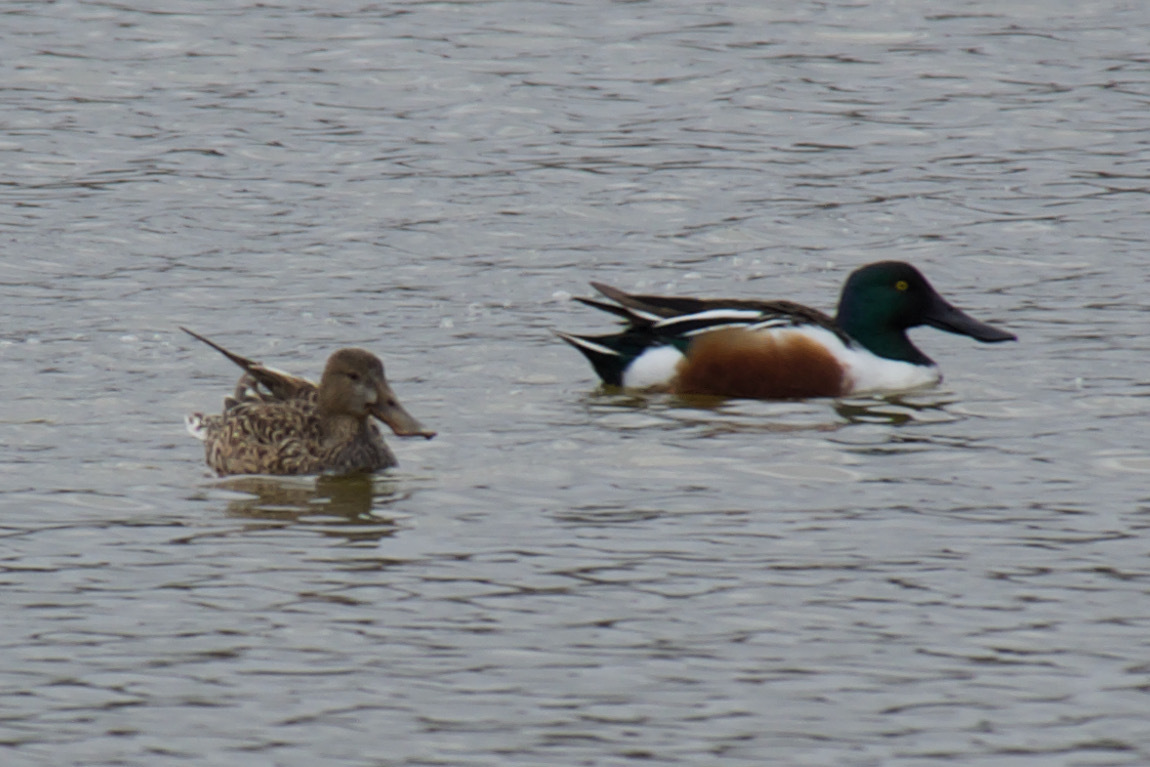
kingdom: Animalia
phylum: Chordata
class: Aves
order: Anseriformes
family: Anatidae
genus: Spatula
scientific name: Spatula clypeata
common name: Northern shoveler
